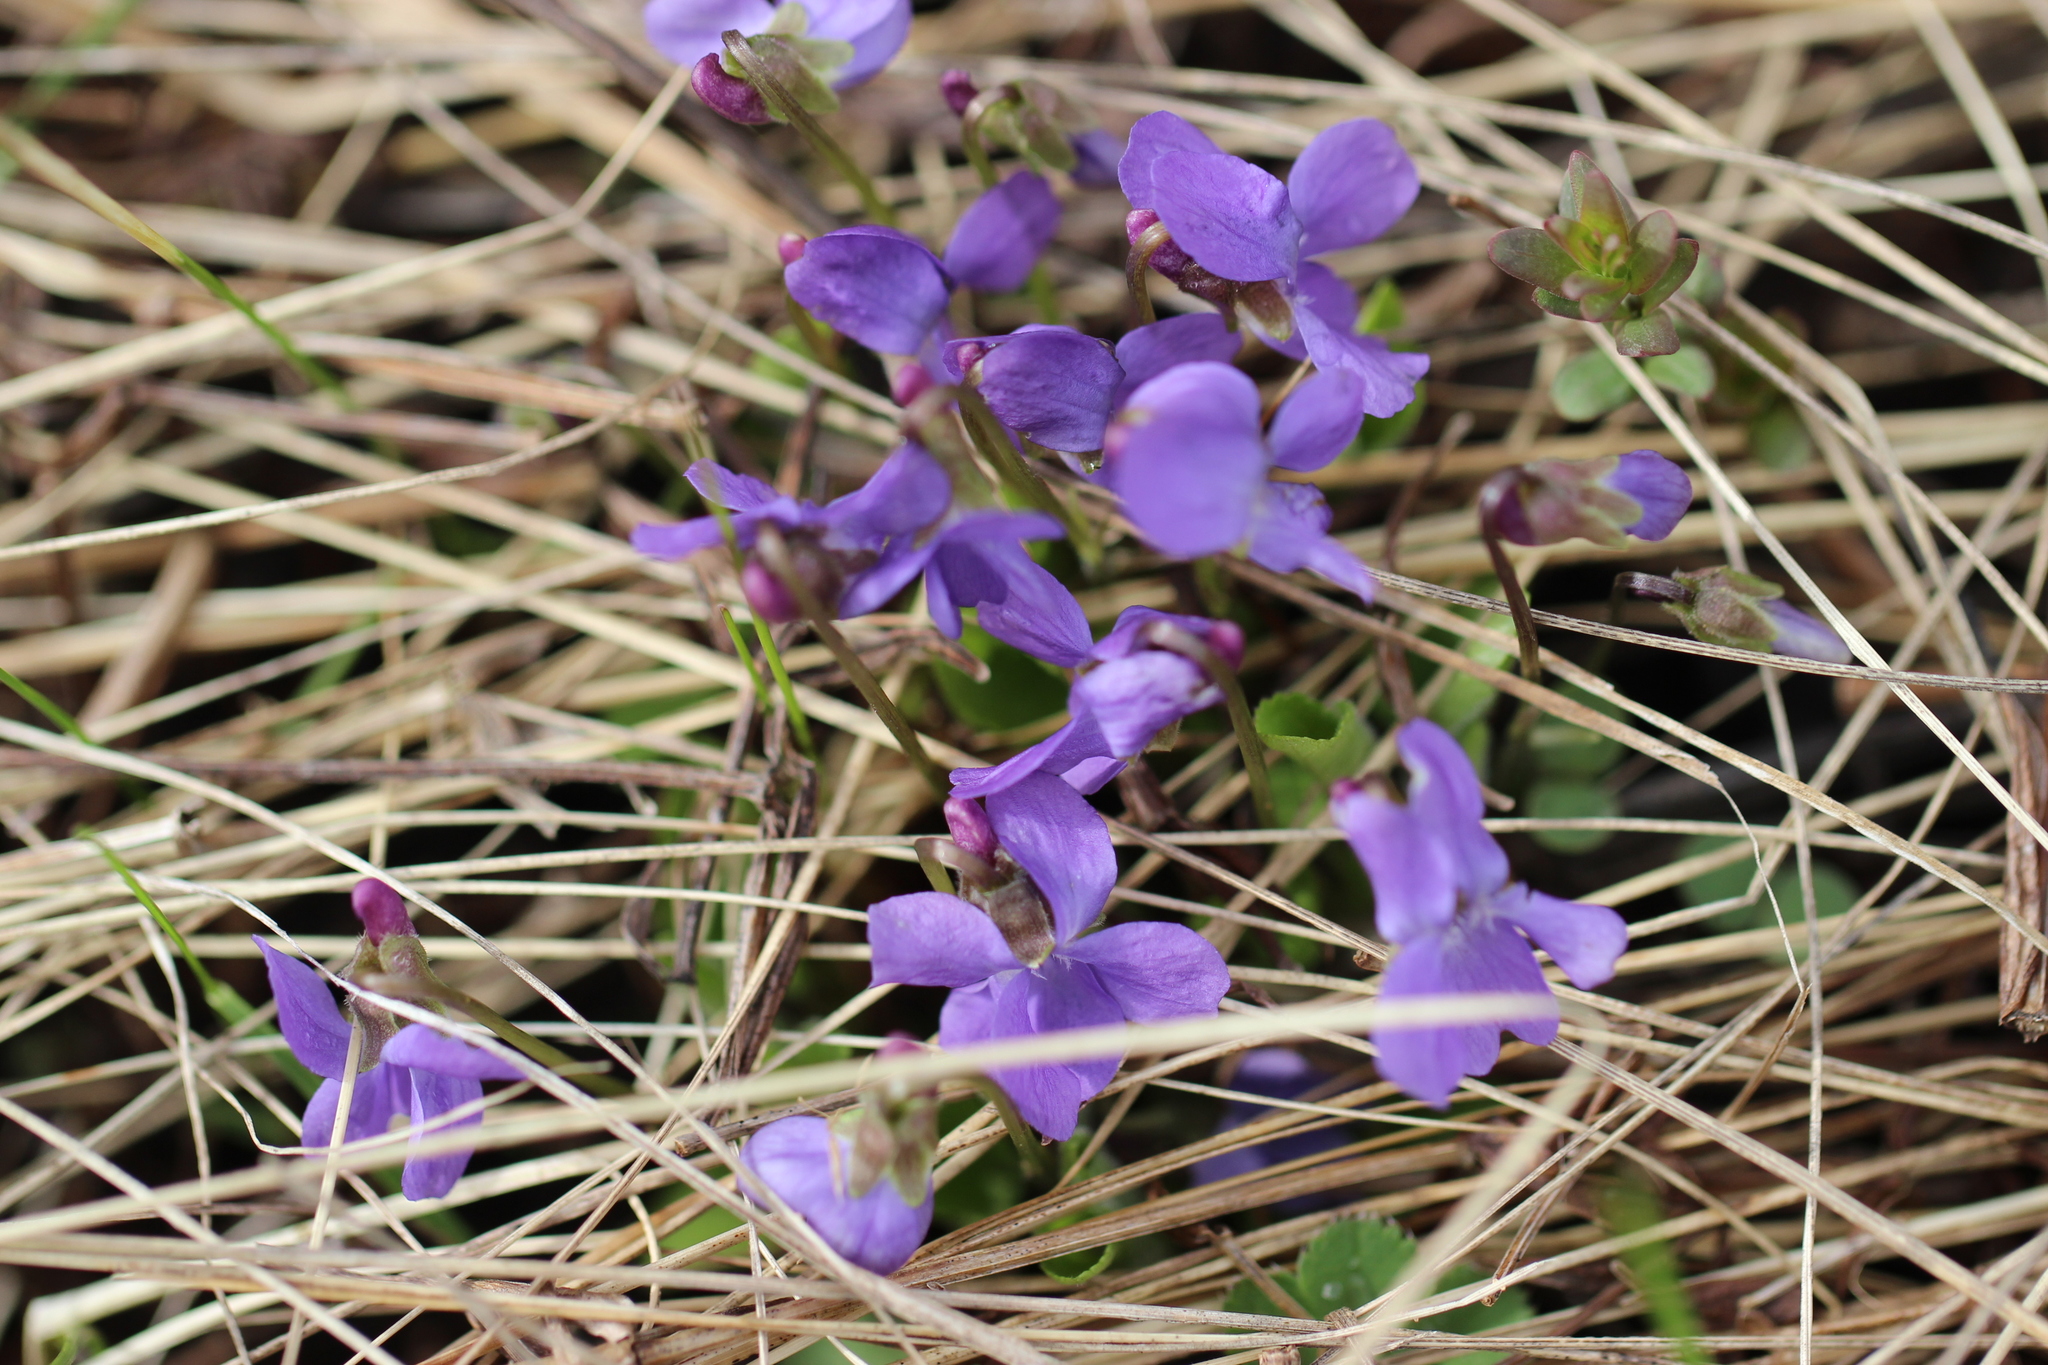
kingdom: Plantae
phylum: Tracheophyta
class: Magnoliopsida
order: Malpighiales
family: Violaceae
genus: Viola
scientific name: Viola hirta
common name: Hairy violet
